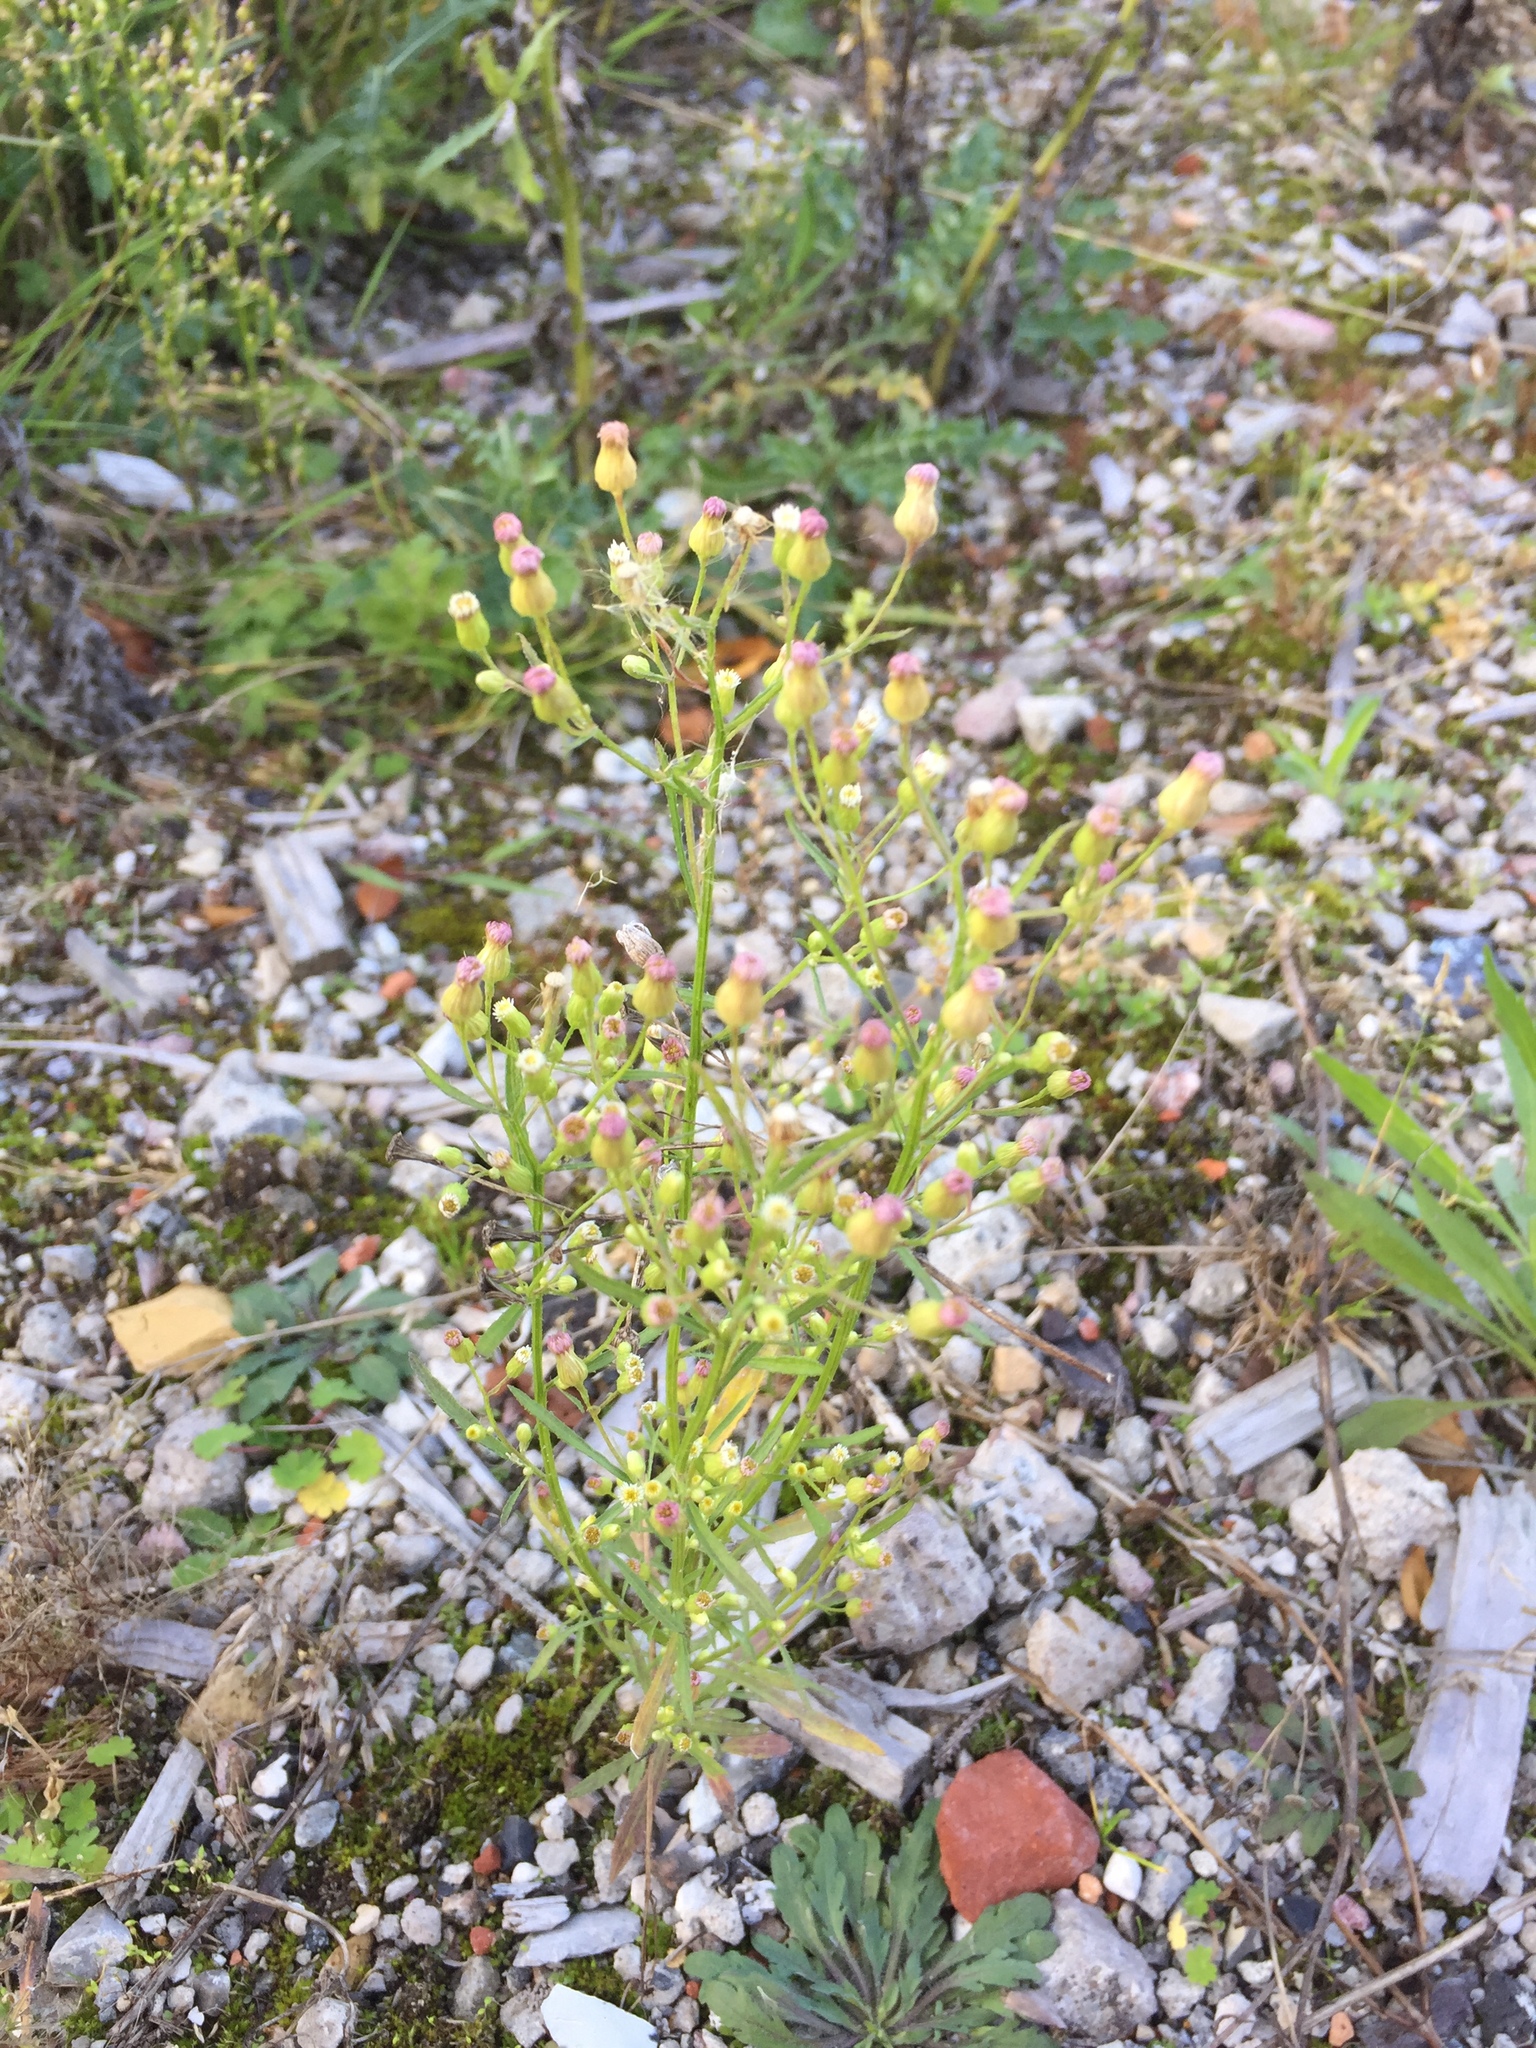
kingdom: Plantae
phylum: Tracheophyta
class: Magnoliopsida
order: Asterales
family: Asteraceae
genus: Erigeron
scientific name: Erigeron canadensis
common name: Canadian fleabane
